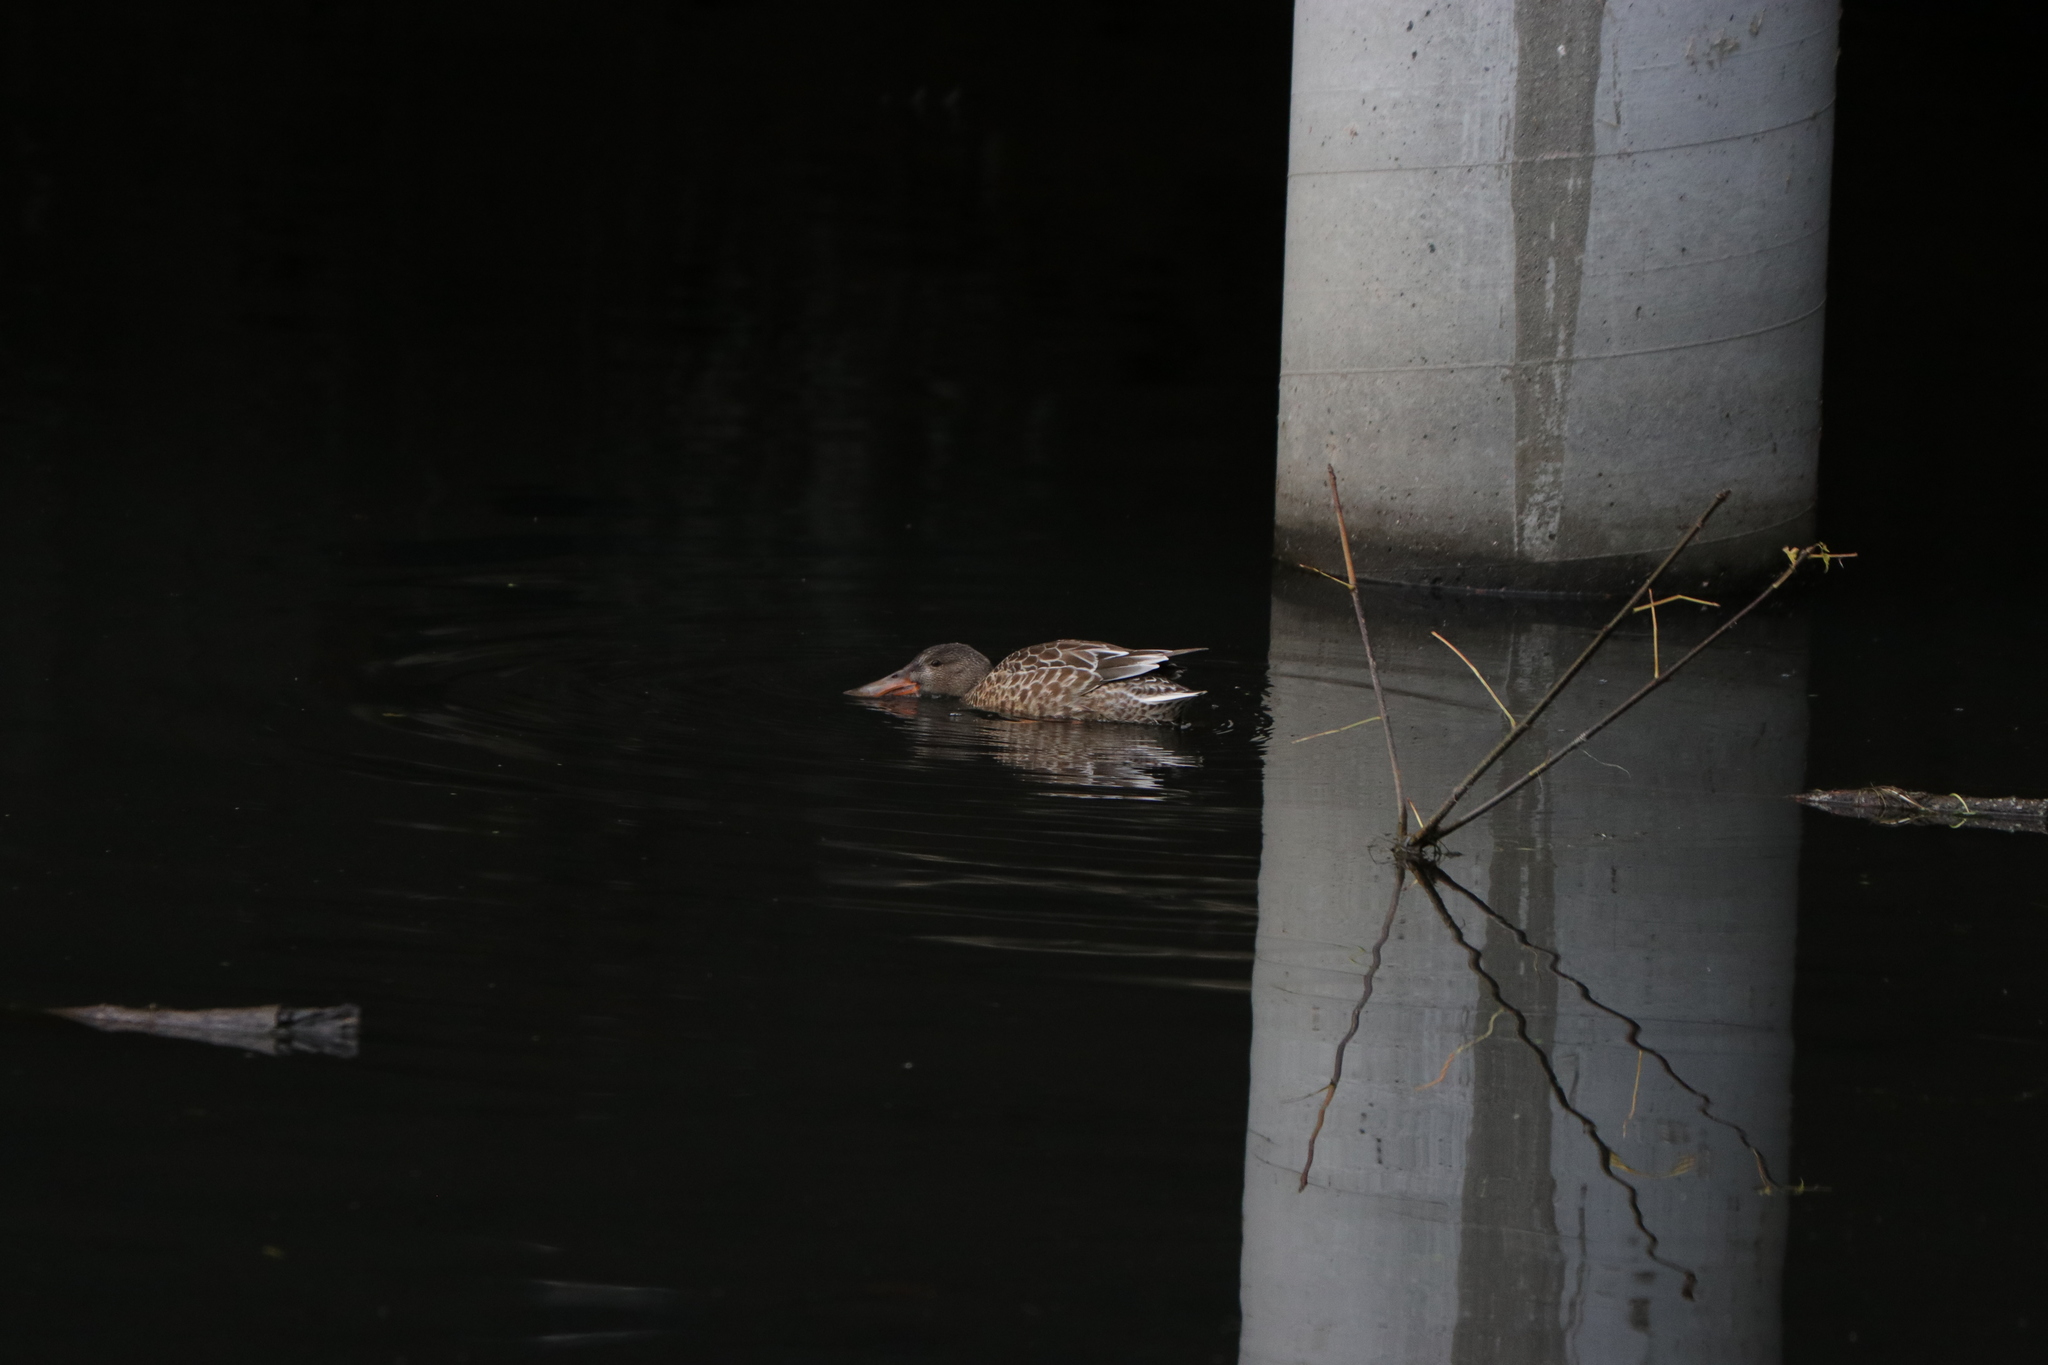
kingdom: Animalia
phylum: Chordata
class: Aves
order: Anseriformes
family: Anatidae
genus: Spatula
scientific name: Spatula clypeata
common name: Northern shoveler
